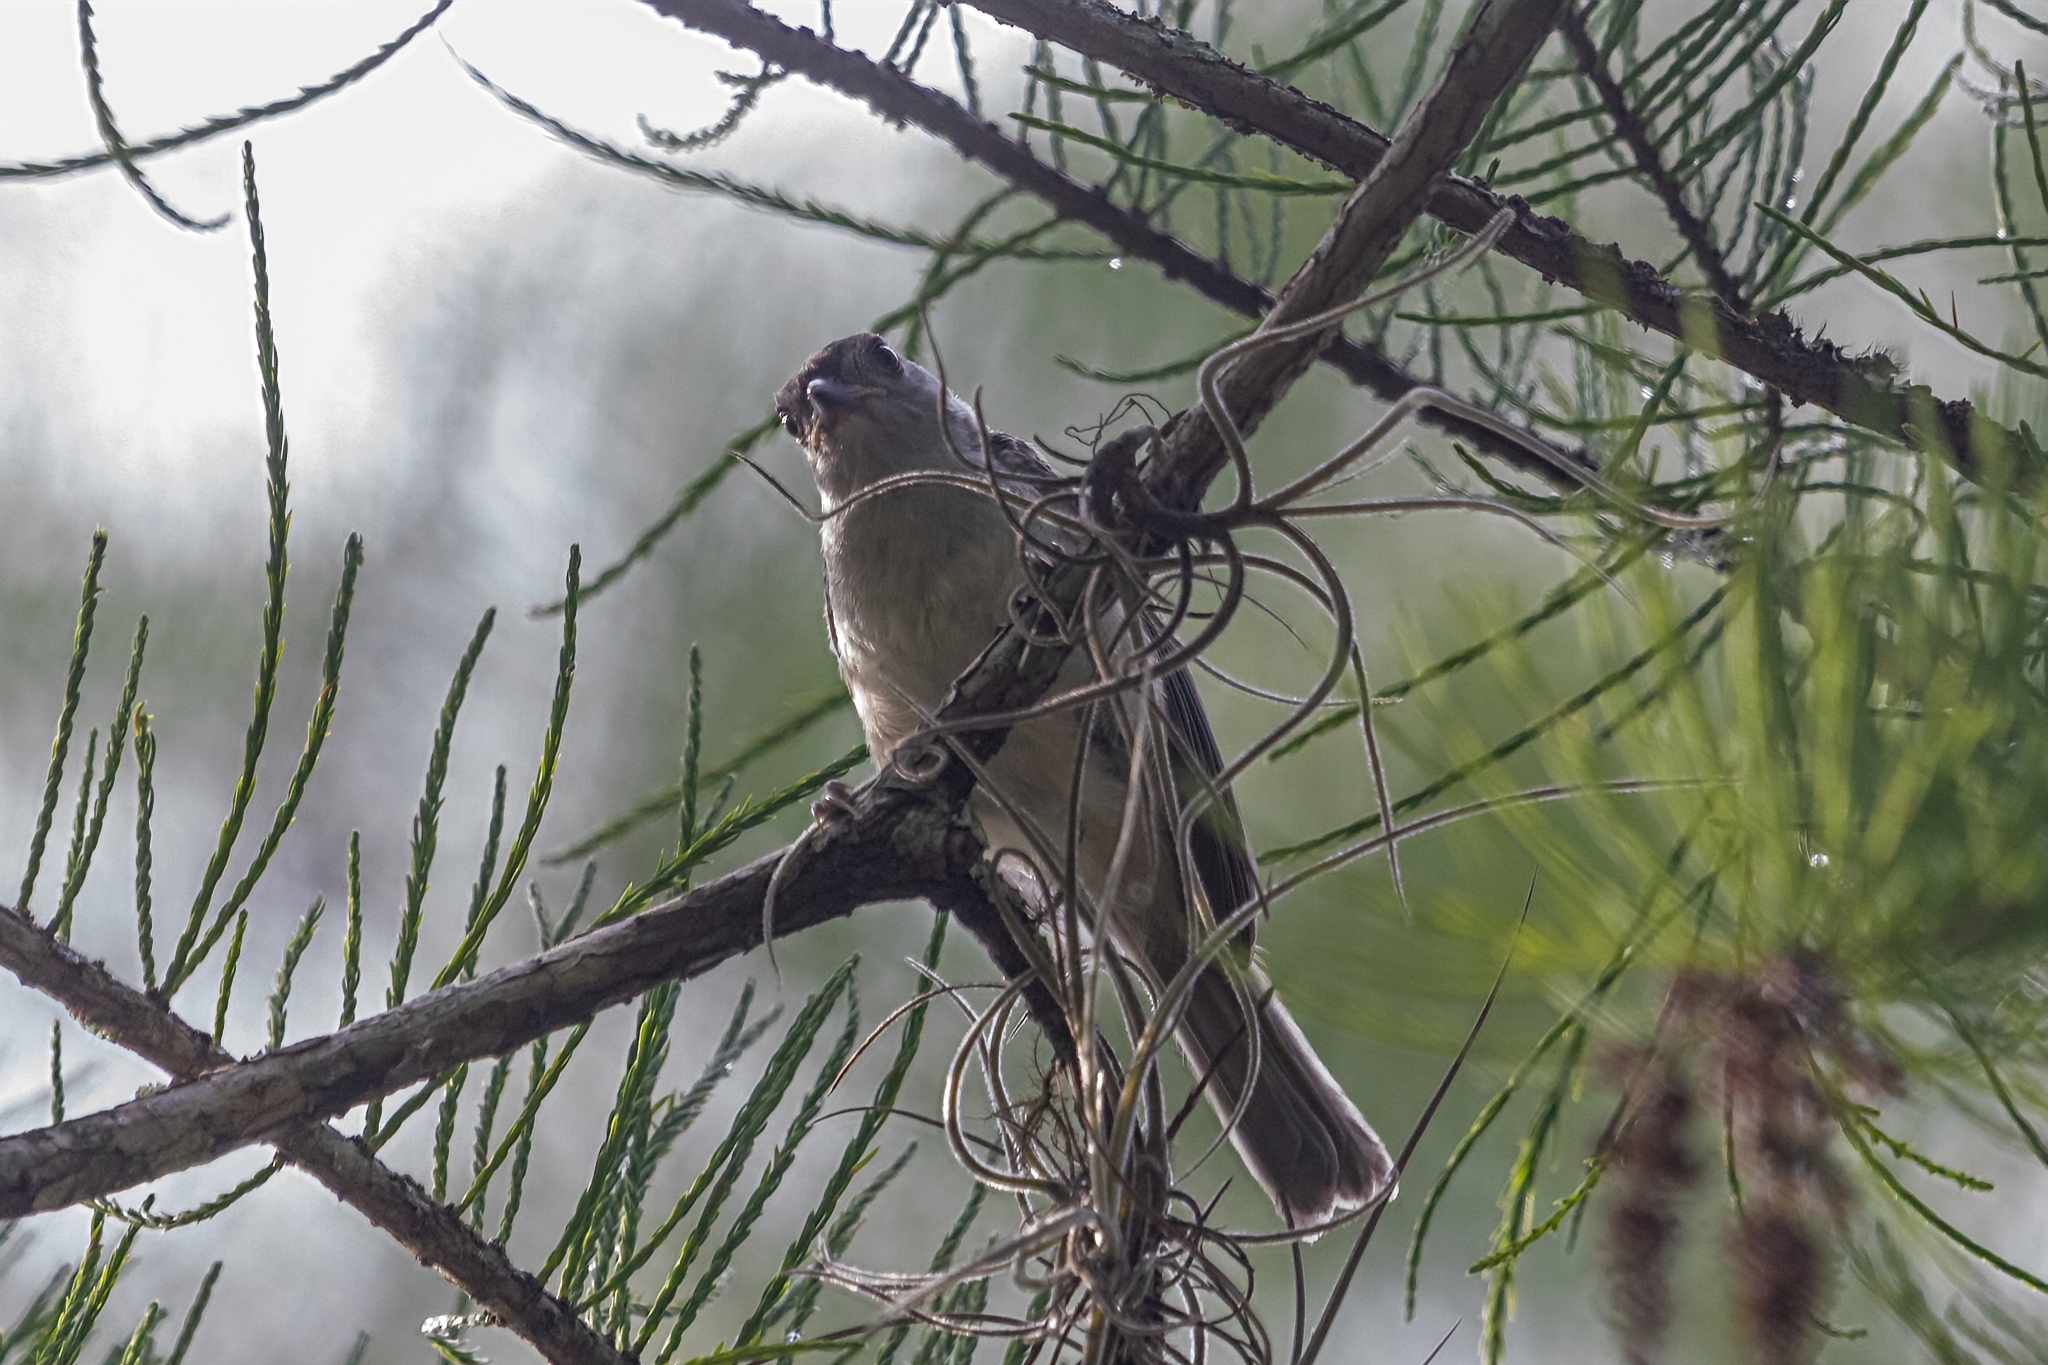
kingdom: Animalia
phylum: Chordata
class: Aves
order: Passeriformes
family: Paridae
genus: Baeolophus
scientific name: Baeolophus bicolor
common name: Tufted titmouse
